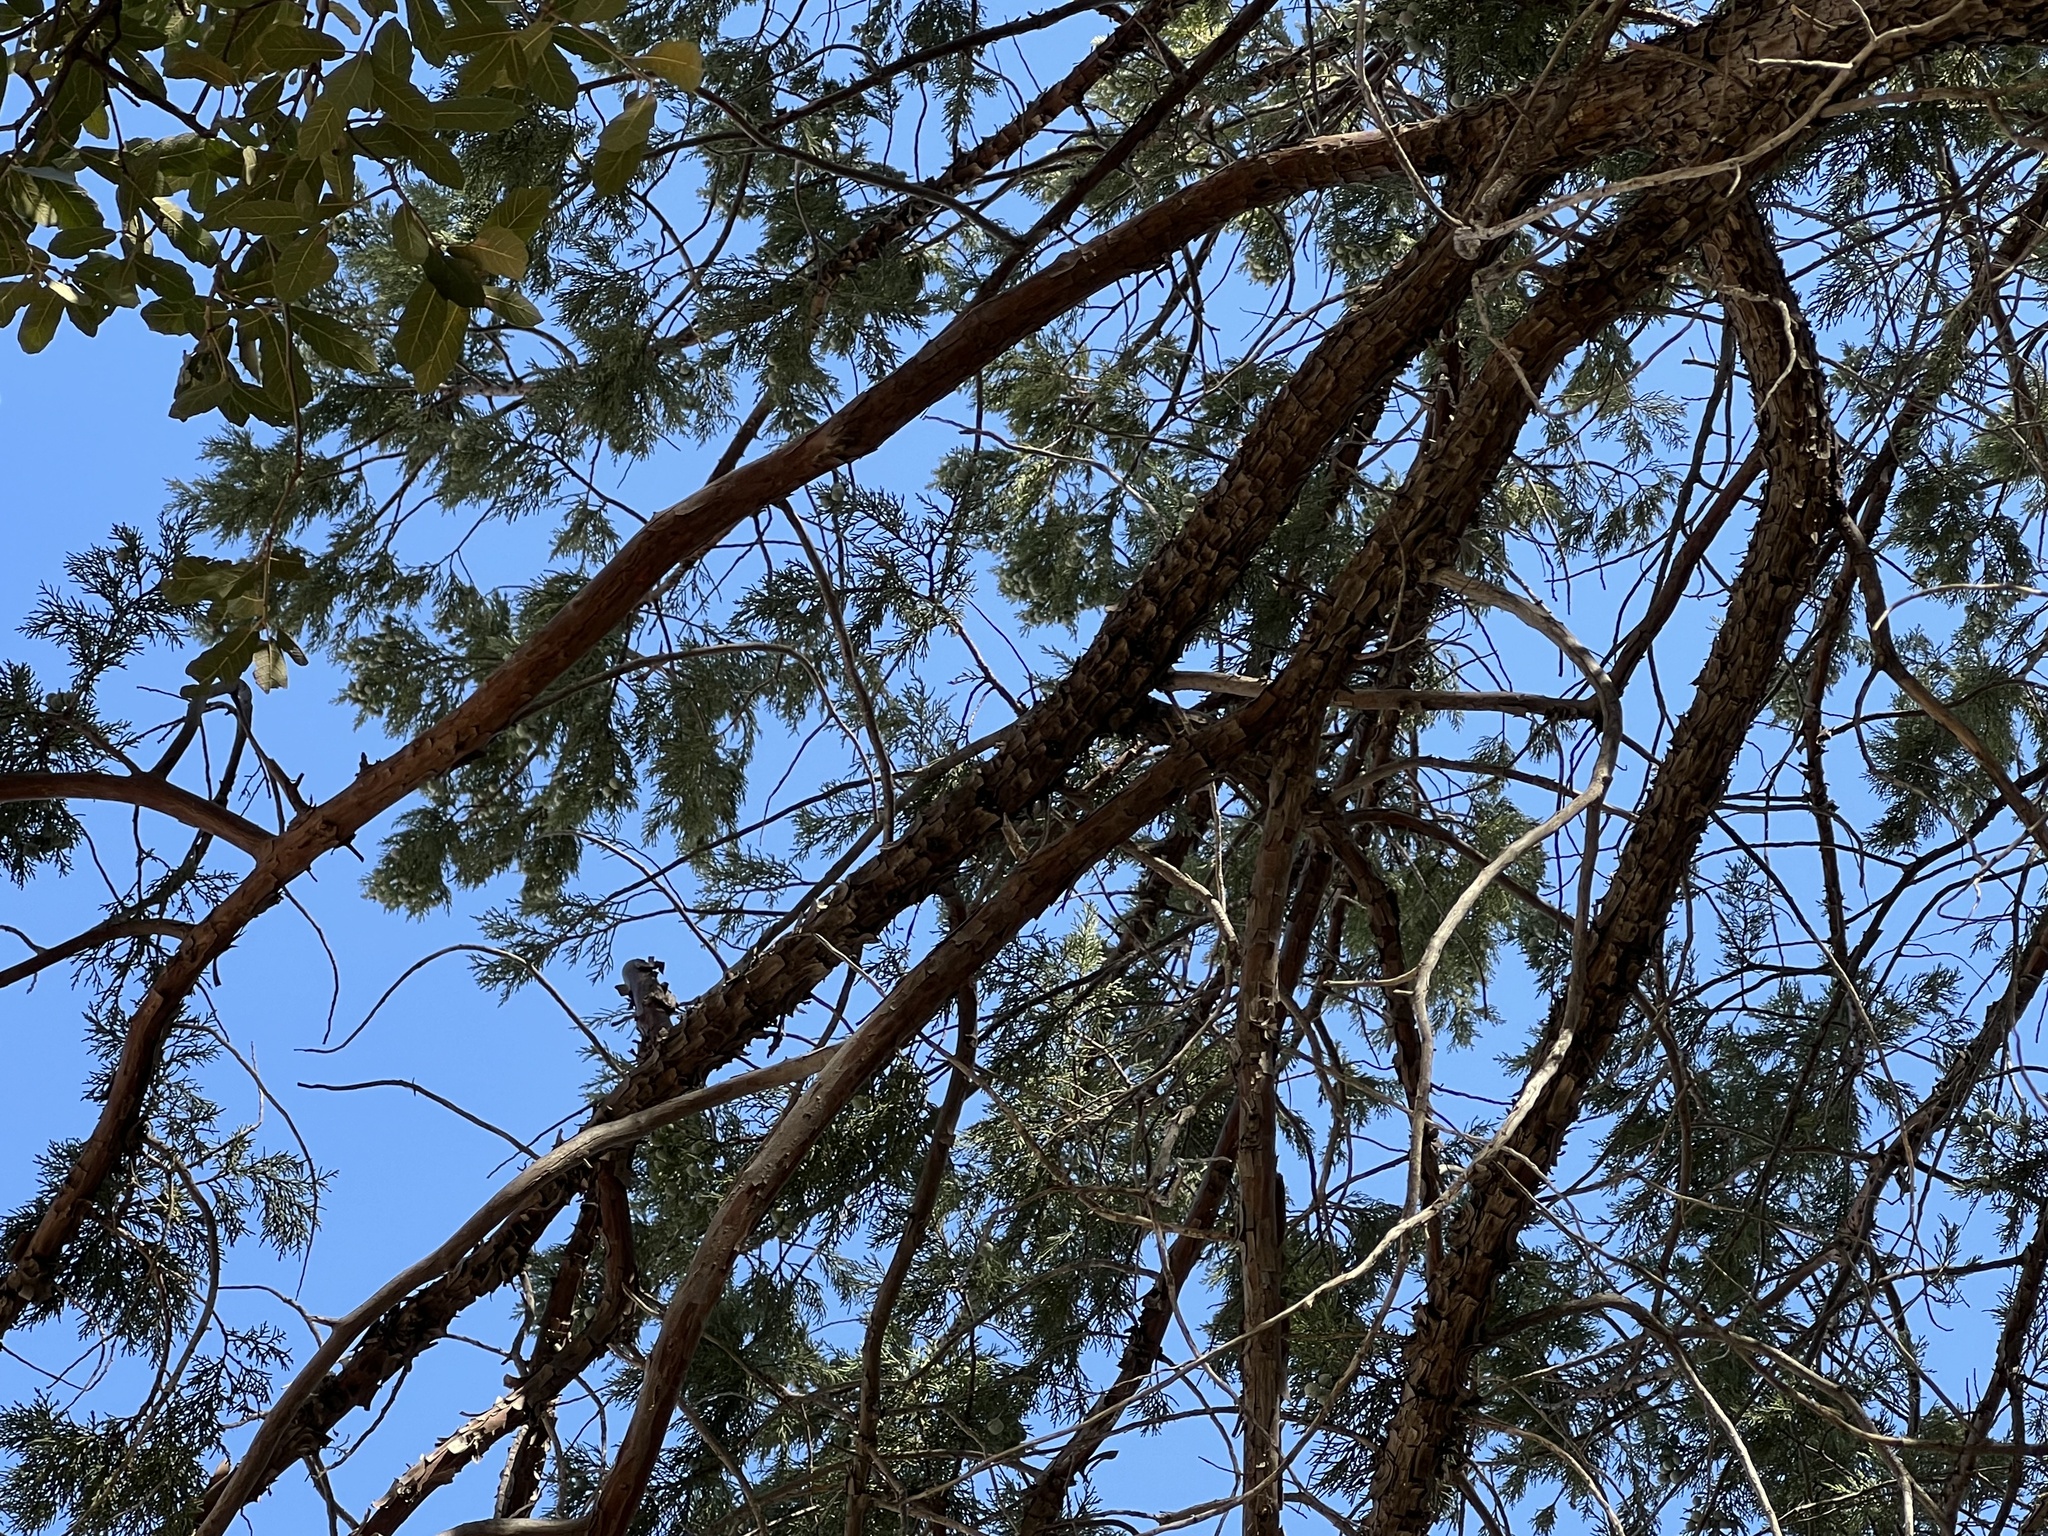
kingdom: Plantae
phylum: Tracheophyta
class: Pinopsida
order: Pinales
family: Cupressaceae
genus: Juniperus
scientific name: Juniperus deppeana
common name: Alligator juniper
